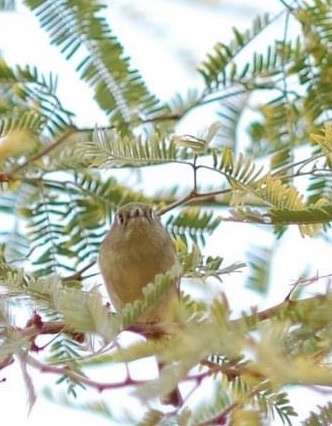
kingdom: Animalia
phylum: Chordata
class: Aves
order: Passeriformes
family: Regulidae
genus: Regulus
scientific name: Regulus calendula
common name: Ruby-crowned kinglet
